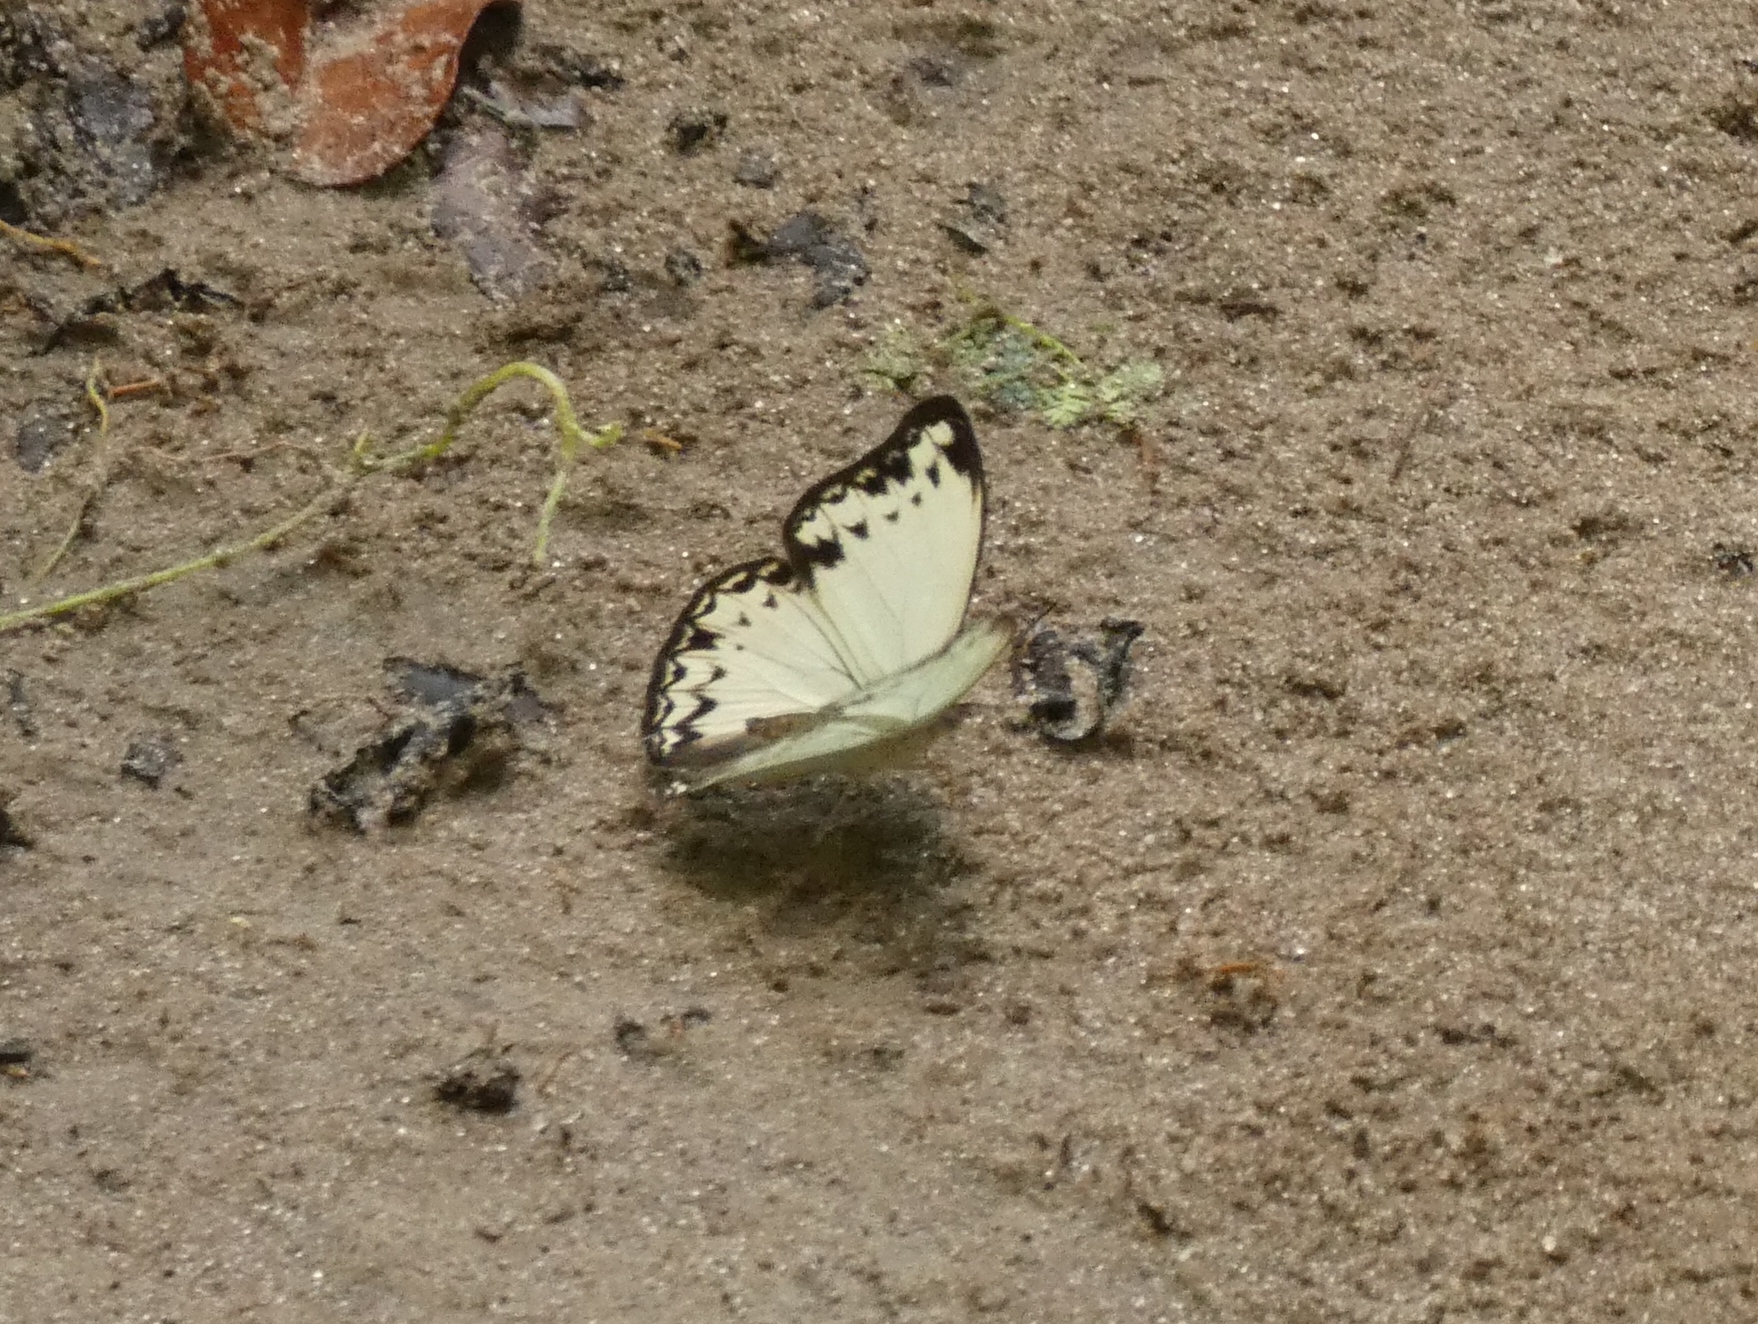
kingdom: Animalia
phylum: Arthropoda
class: Insecta
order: Lepidoptera
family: Nymphalidae
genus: Cymothoe
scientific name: Cymothoe caenis
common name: Common glider
